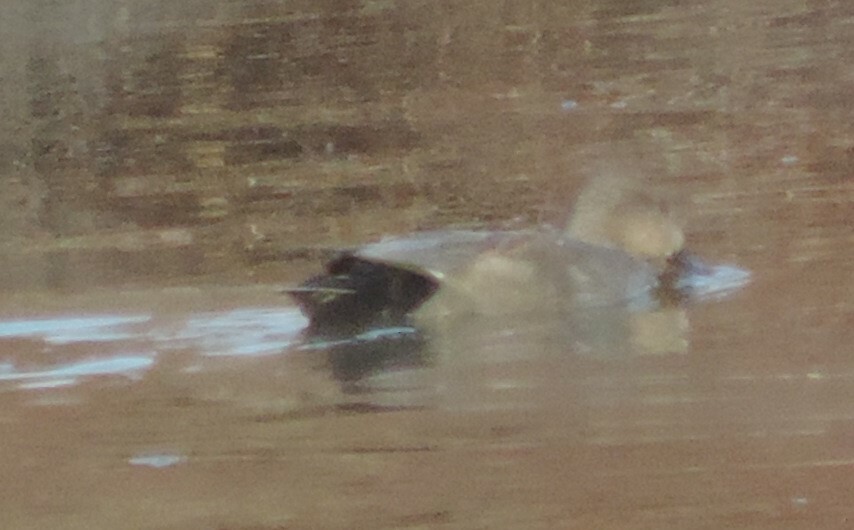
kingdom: Animalia
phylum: Chordata
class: Aves
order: Anseriformes
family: Anatidae
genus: Mareca
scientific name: Mareca strepera
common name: Gadwall
